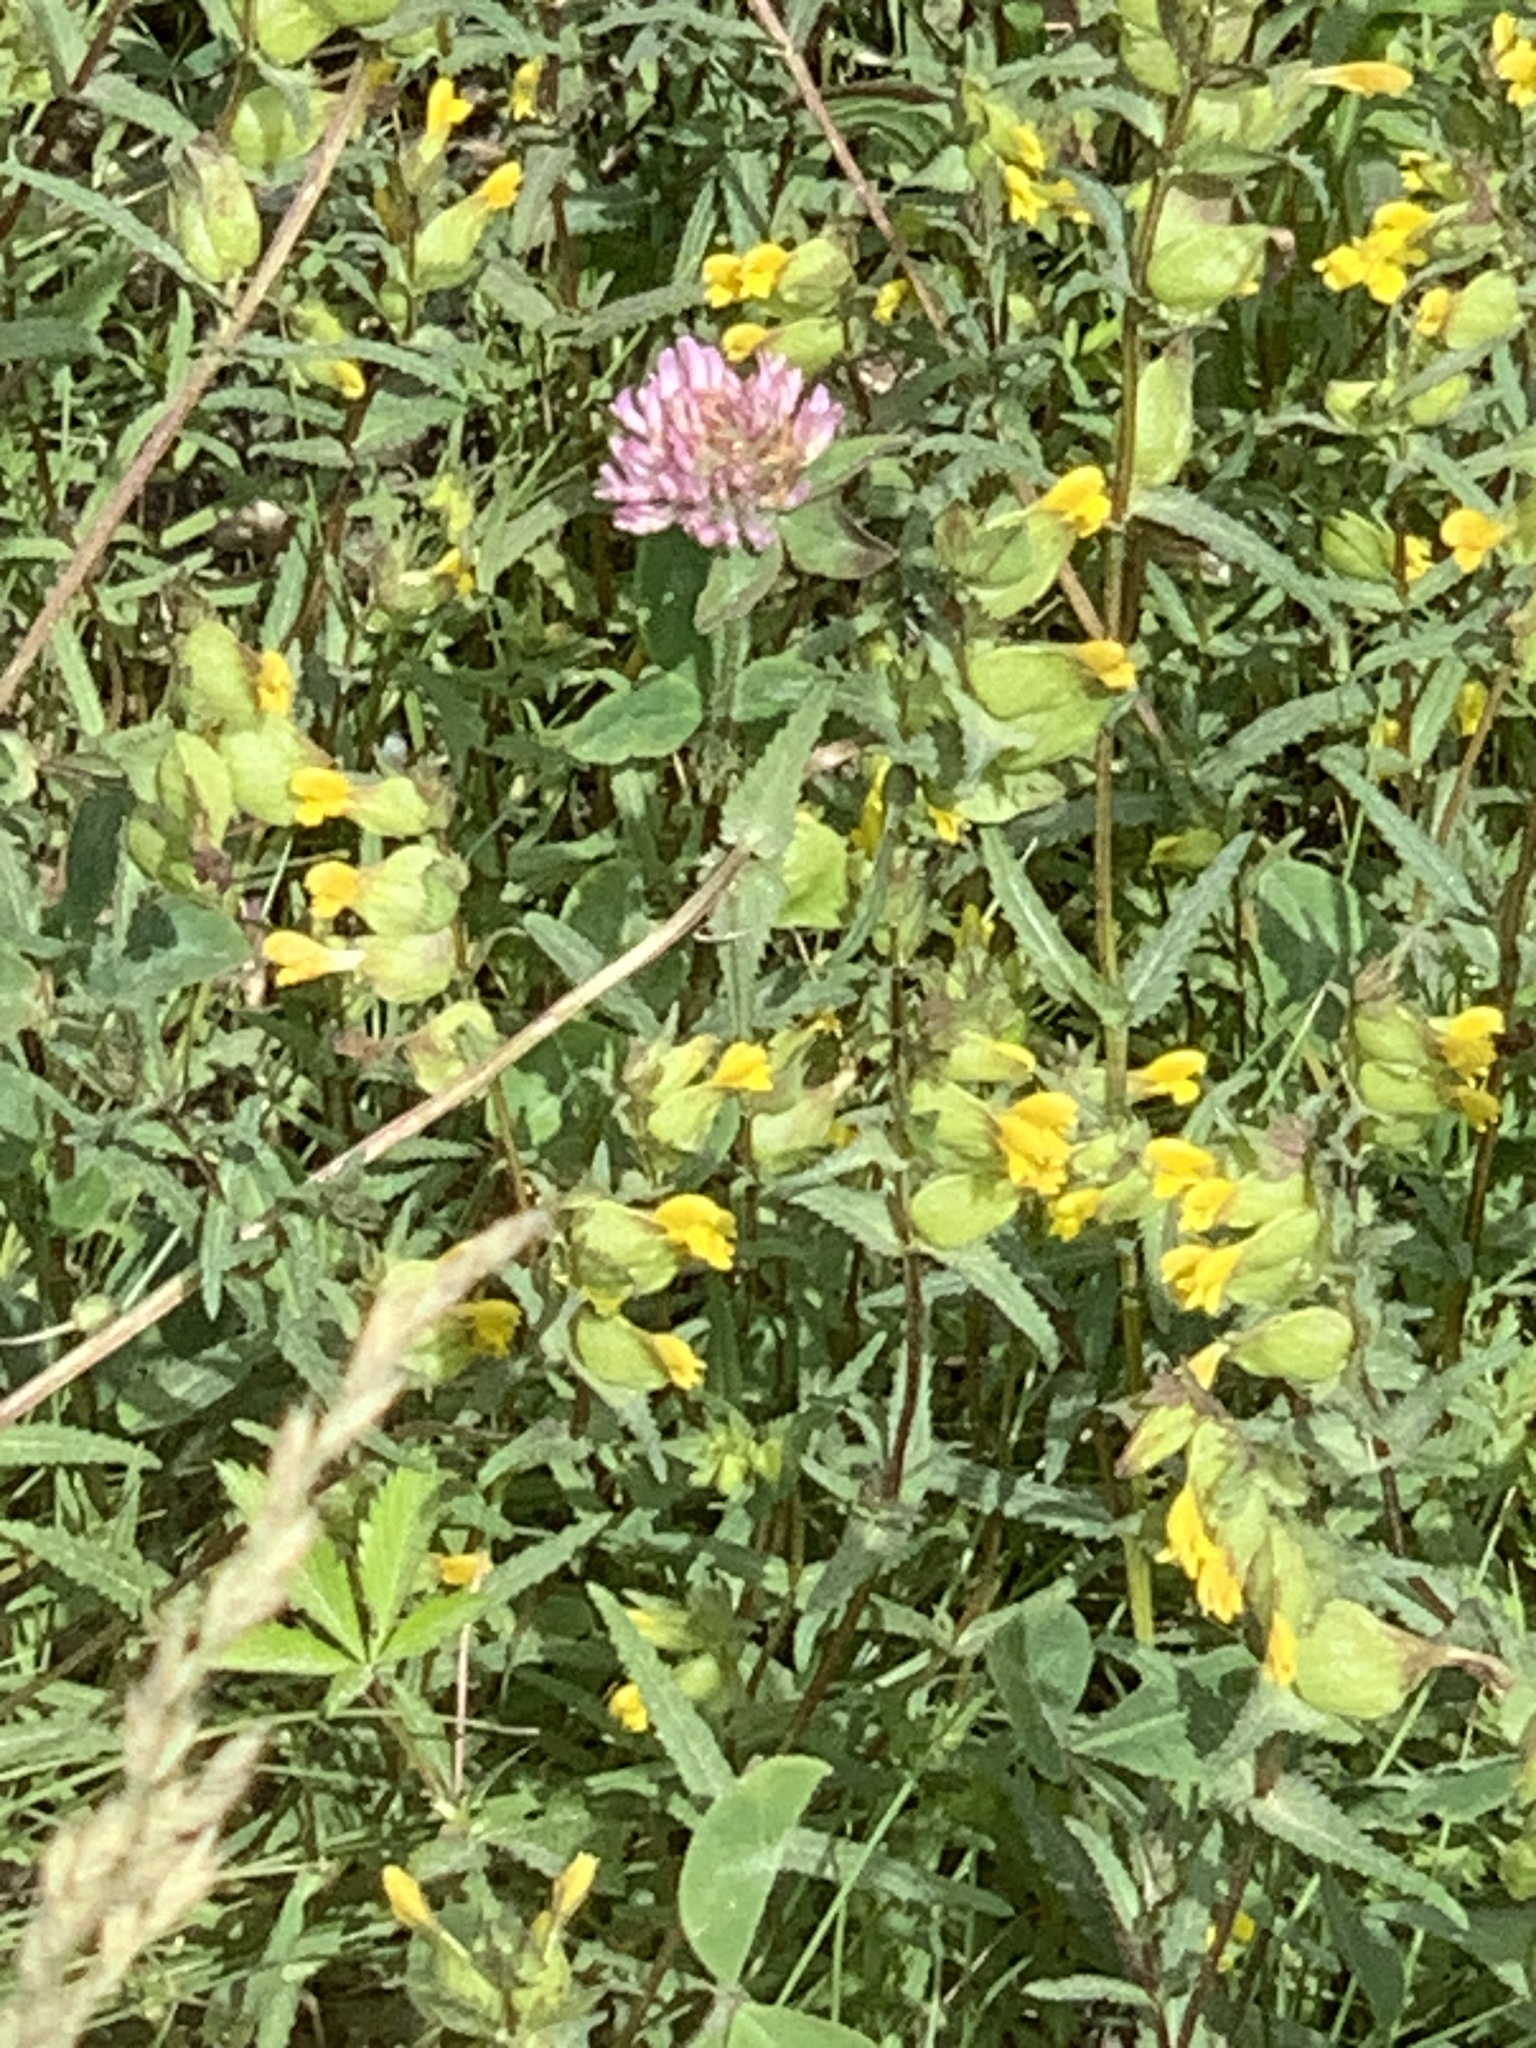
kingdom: Plantae
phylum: Tracheophyta
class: Magnoliopsida
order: Lamiales
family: Orobanchaceae
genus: Rhinanthus
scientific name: Rhinanthus minor
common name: Yellow-rattle
